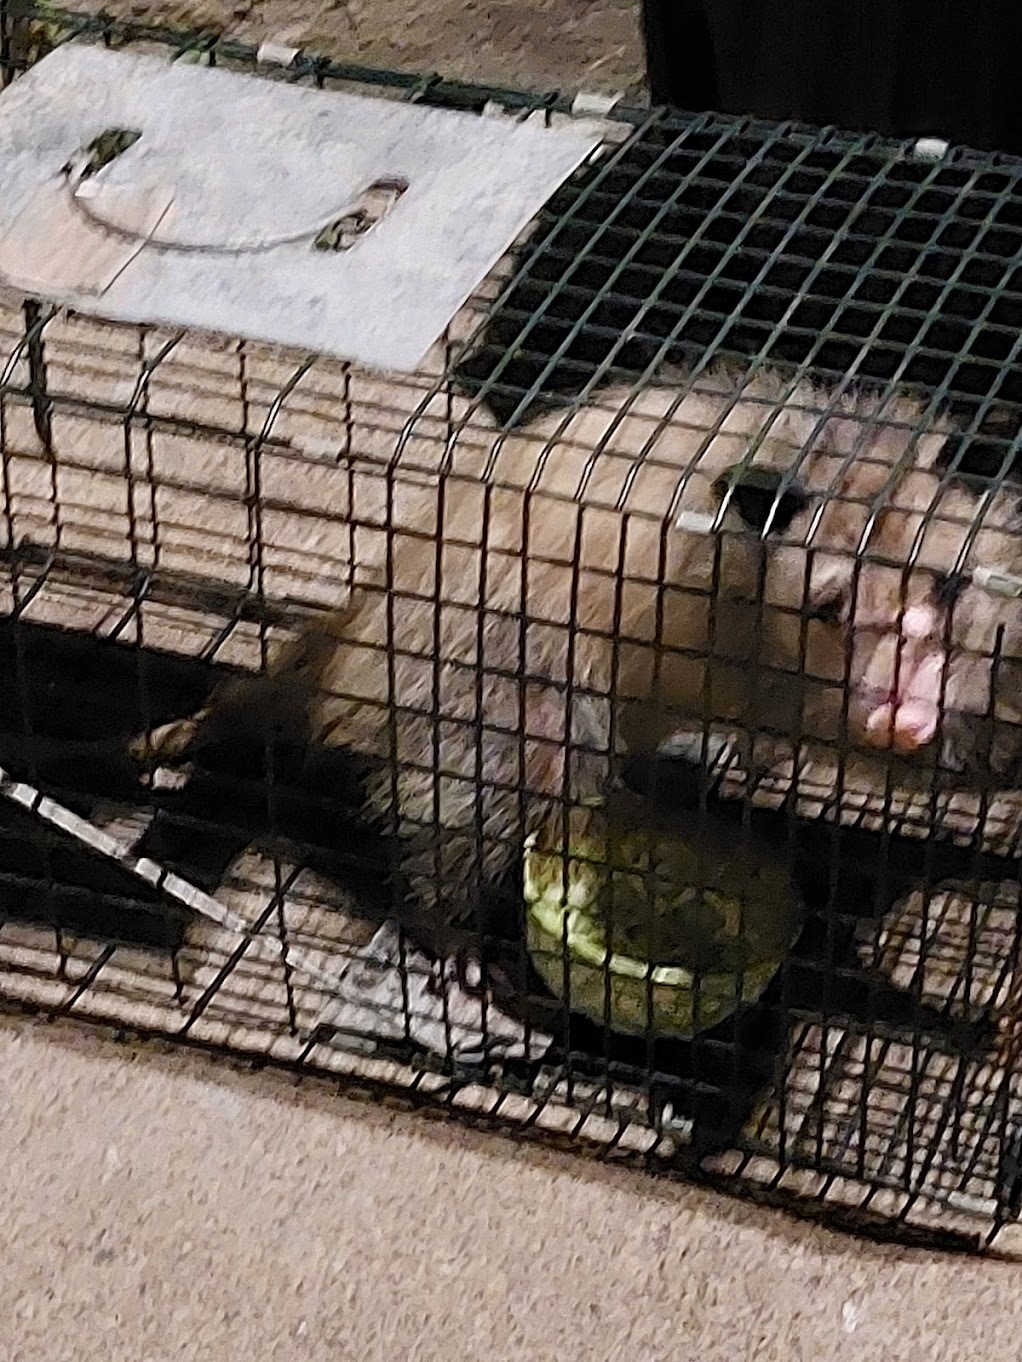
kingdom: Animalia
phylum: Chordata
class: Mammalia
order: Didelphimorphia
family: Didelphidae
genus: Didelphis
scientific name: Didelphis virginiana
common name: Virginia opossum
